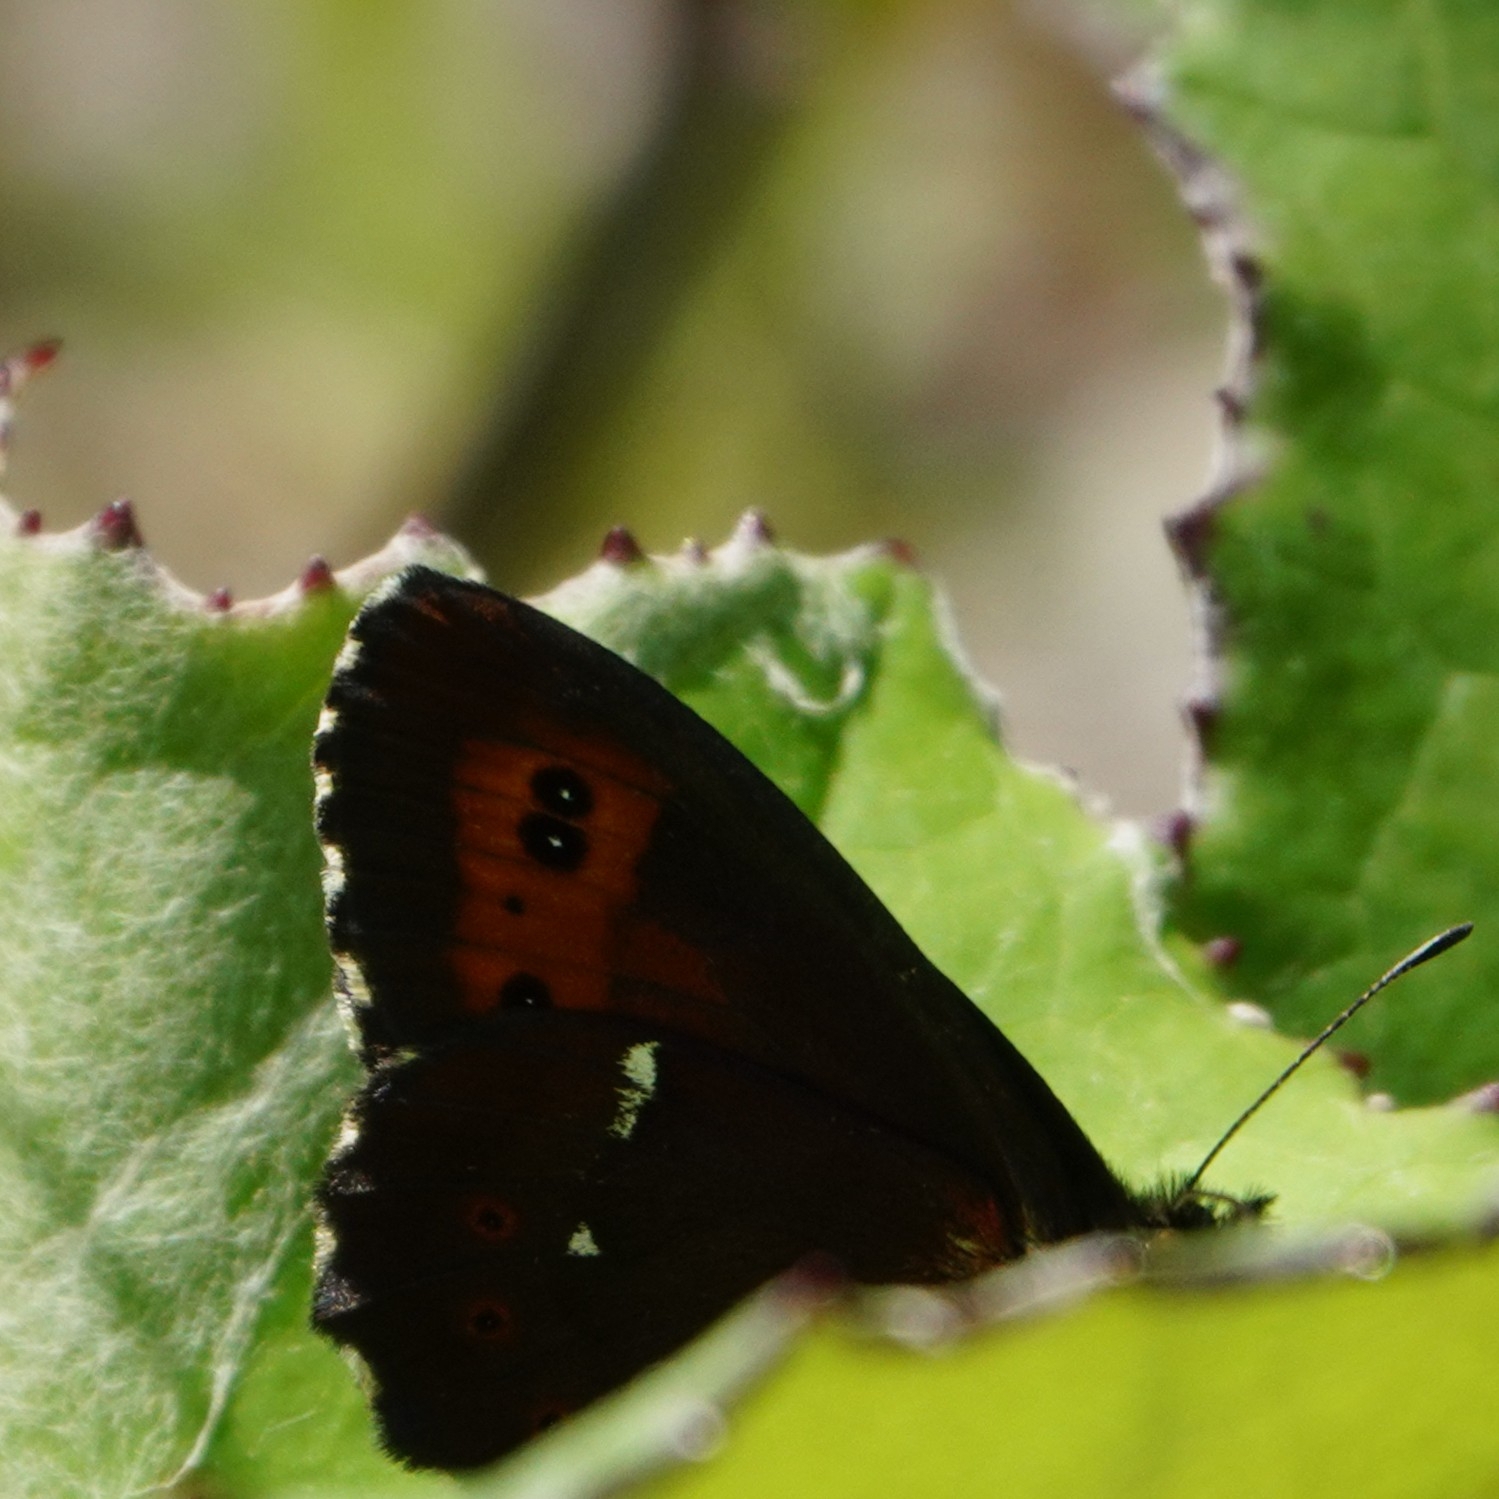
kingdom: Animalia
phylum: Arthropoda
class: Insecta
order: Lepidoptera
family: Nymphalidae
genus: Erebia
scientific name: Erebia ligea
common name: Arran brown
